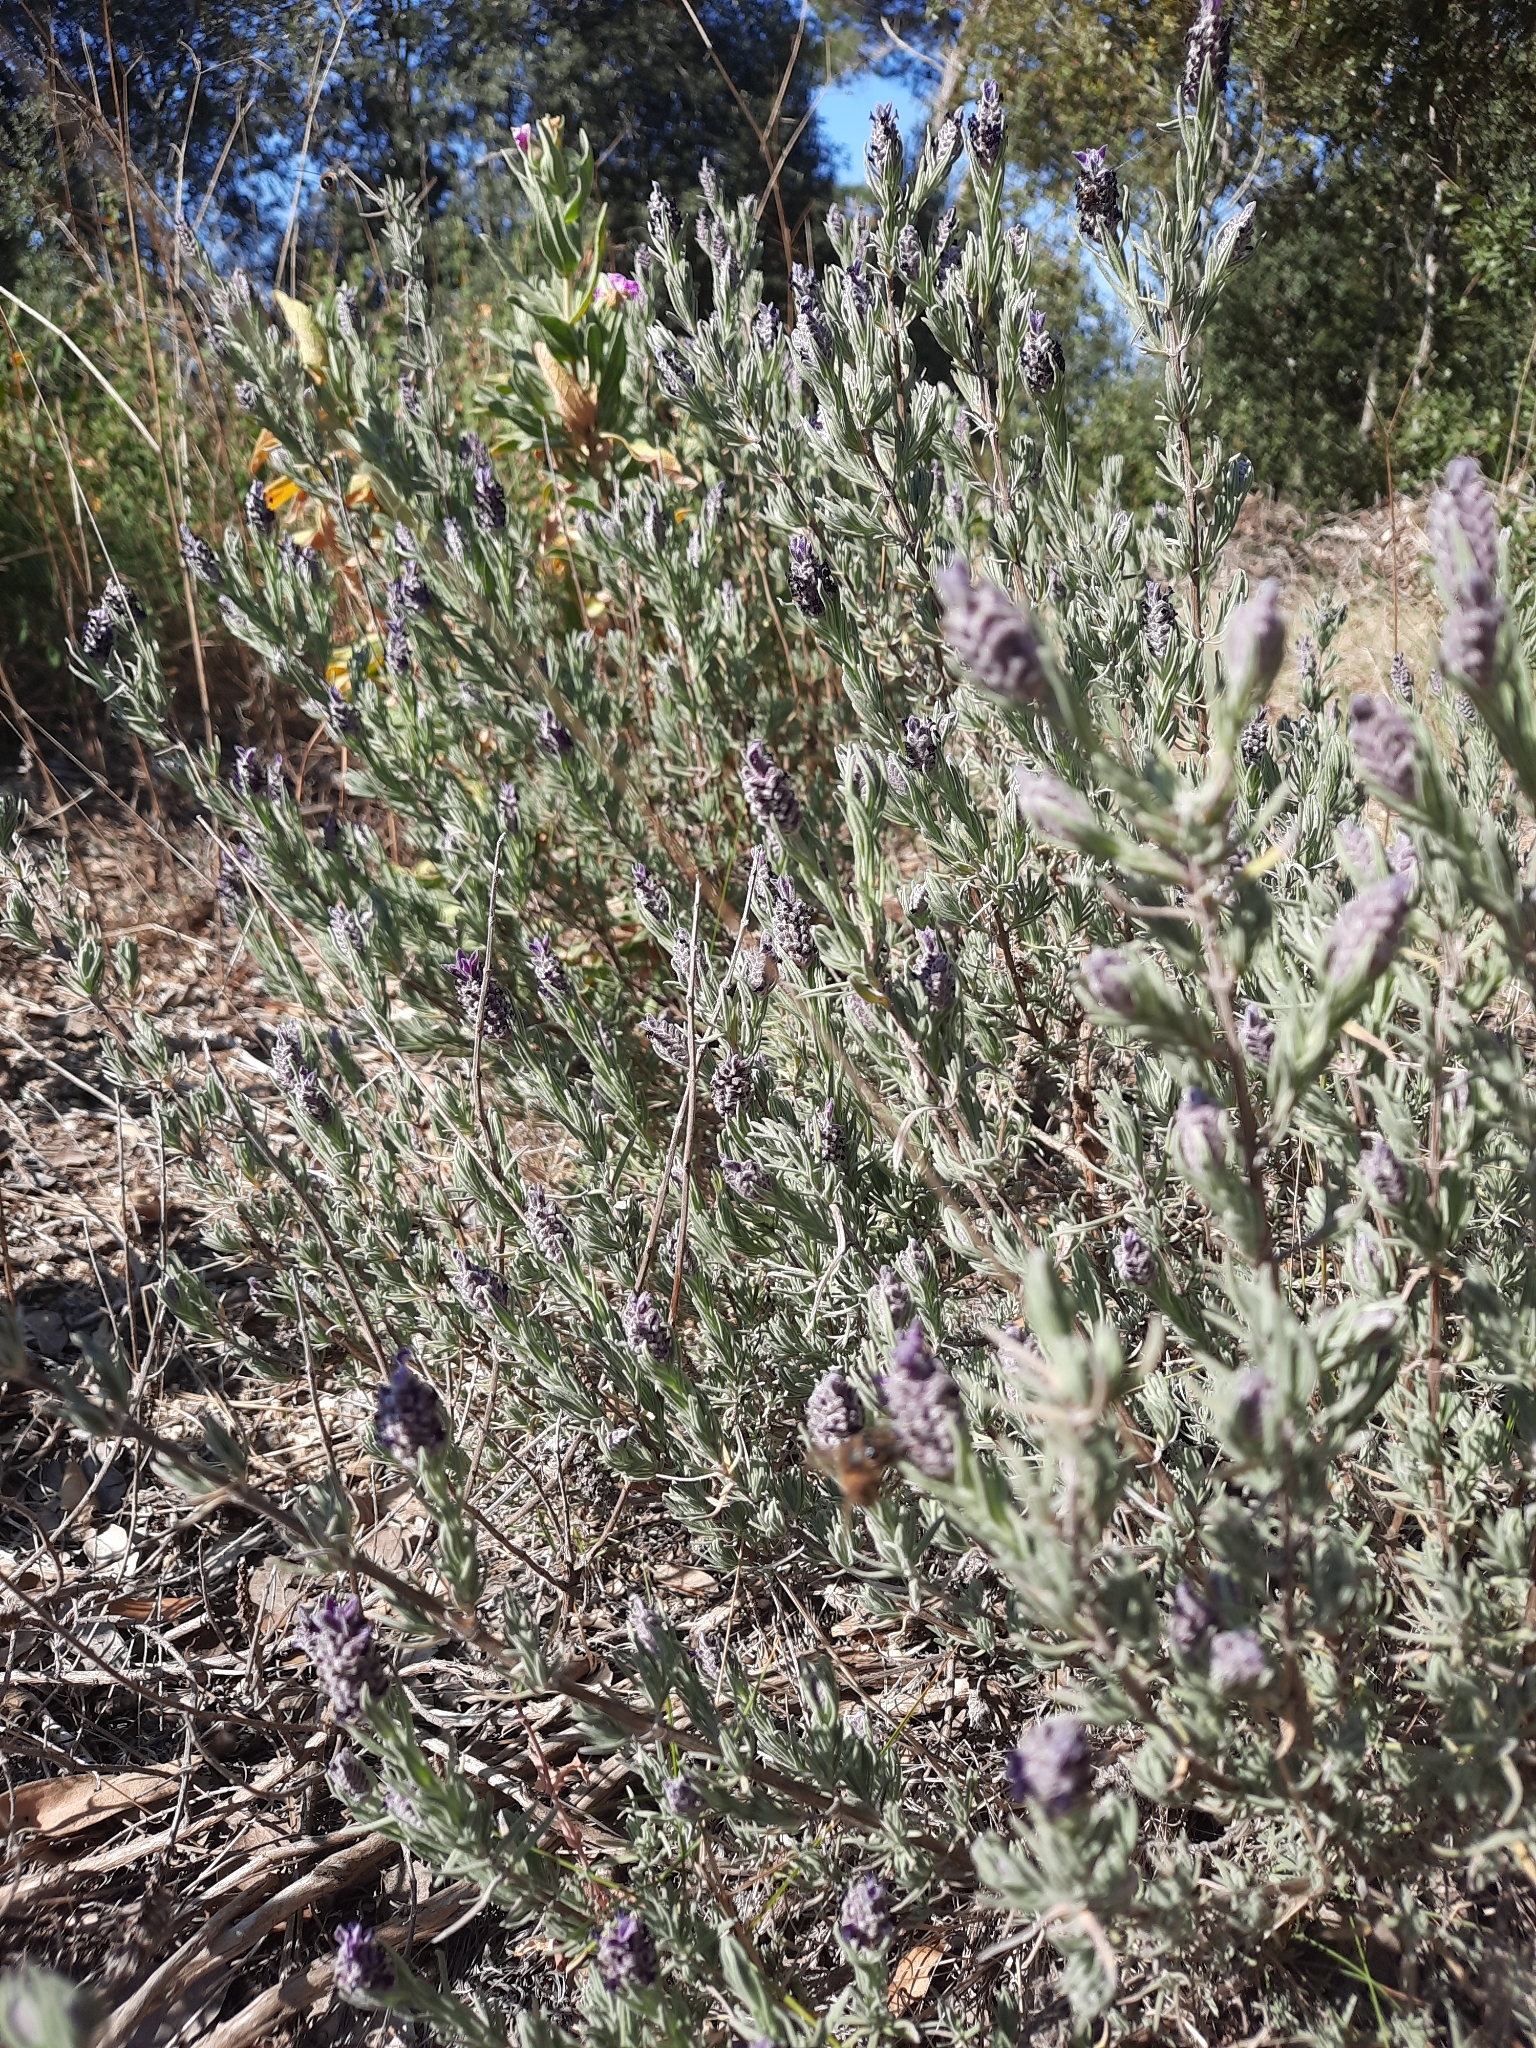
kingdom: Plantae
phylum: Tracheophyta
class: Magnoliopsida
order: Lamiales
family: Lamiaceae
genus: Lavandula
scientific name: Lavandula stoechas
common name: French lavender
